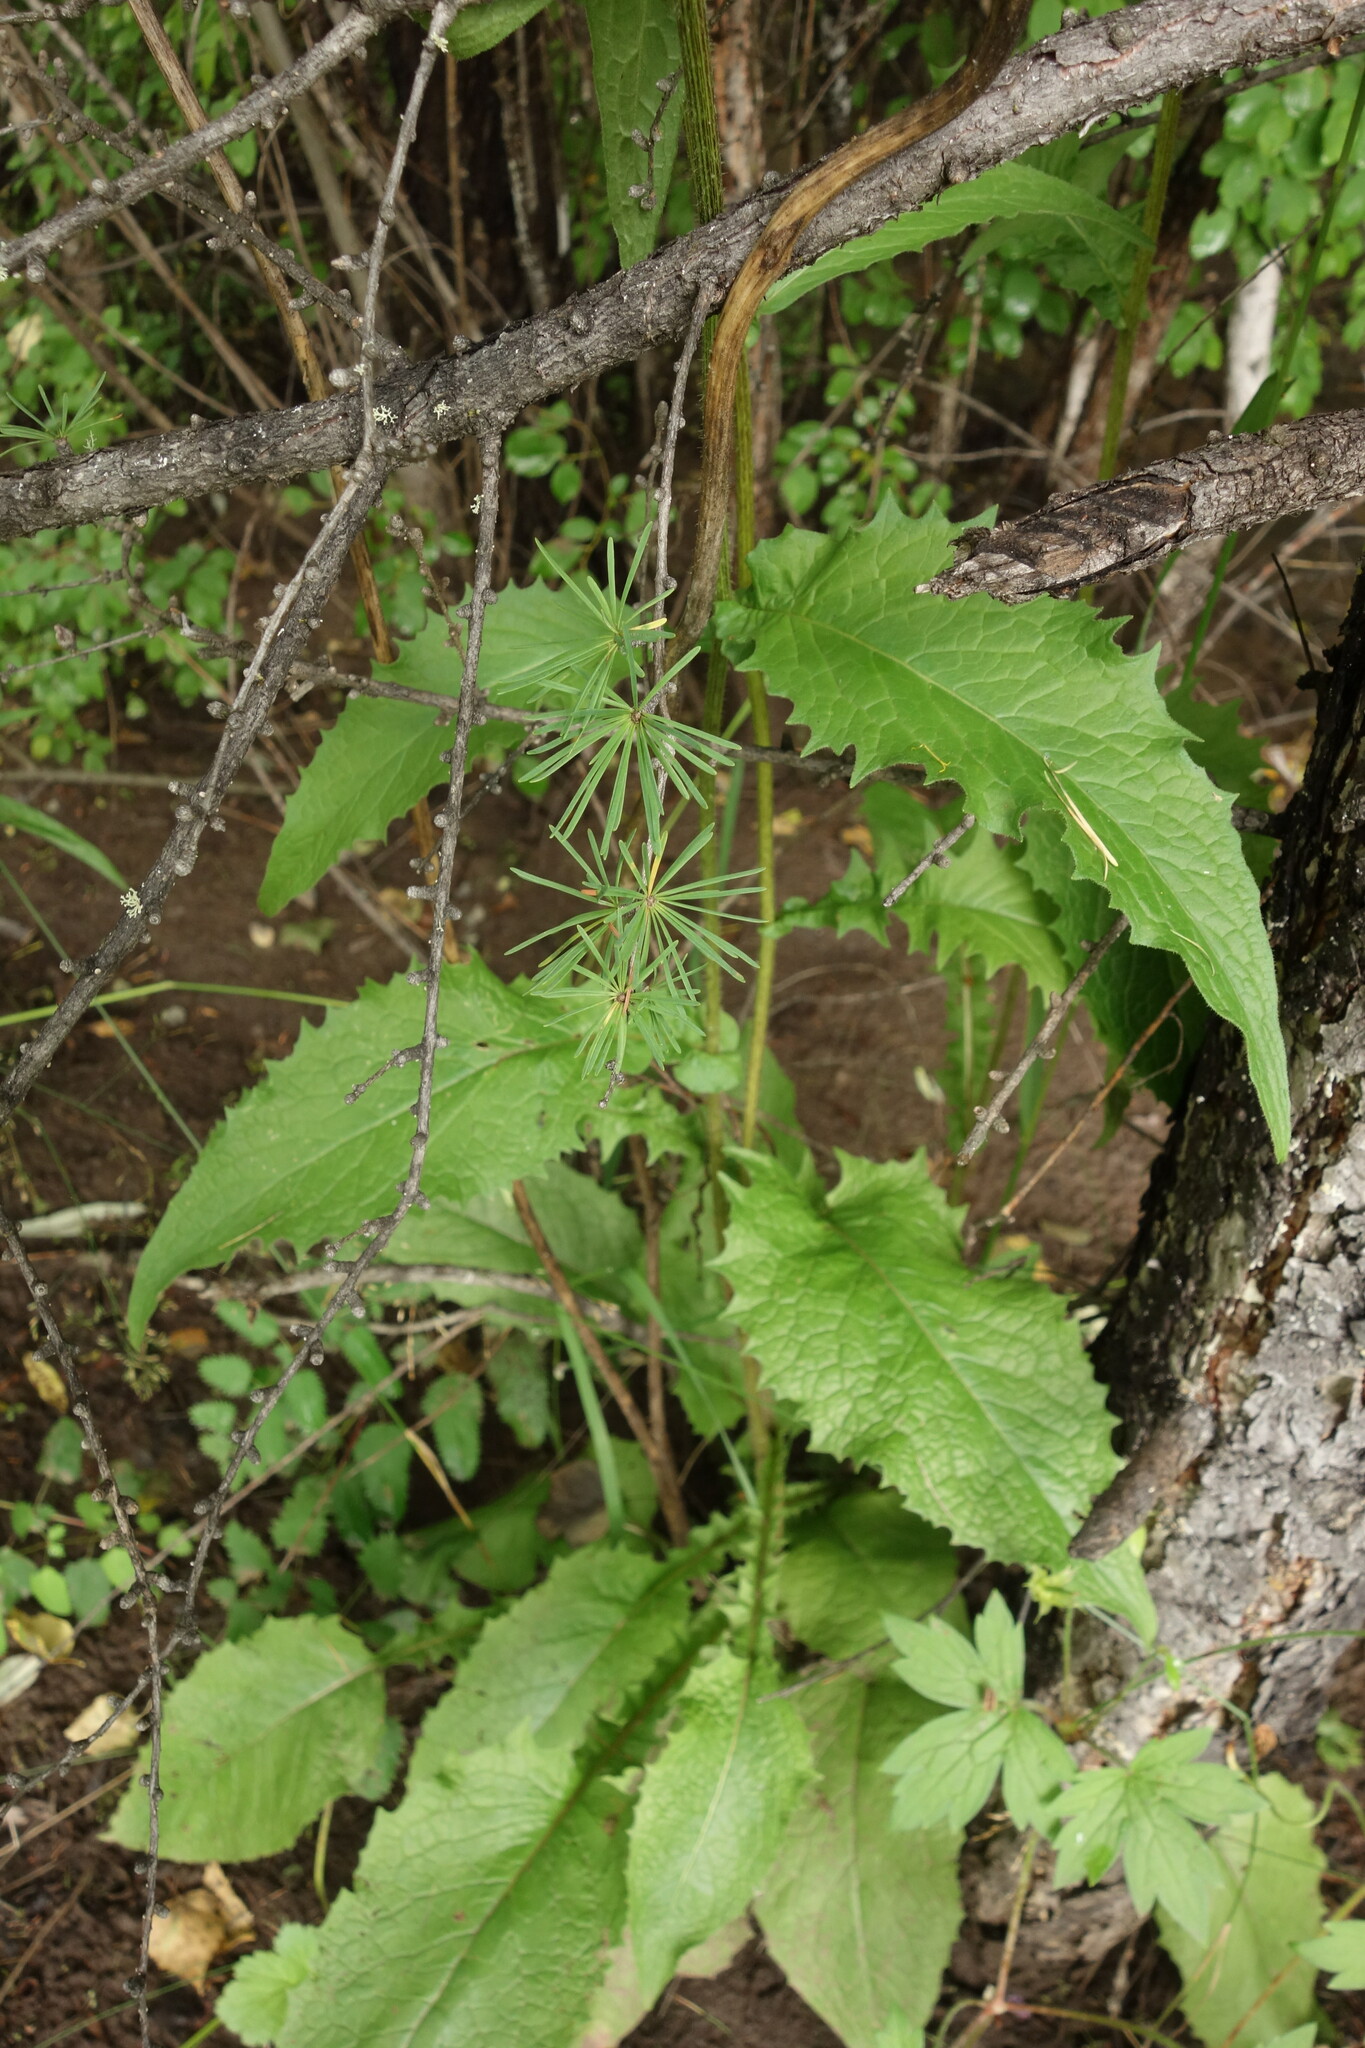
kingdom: Plantae
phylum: Tracheophyta
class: Magnoliopsida
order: Asterales
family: Asteraceae
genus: Crepis
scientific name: Crepis sibirica
